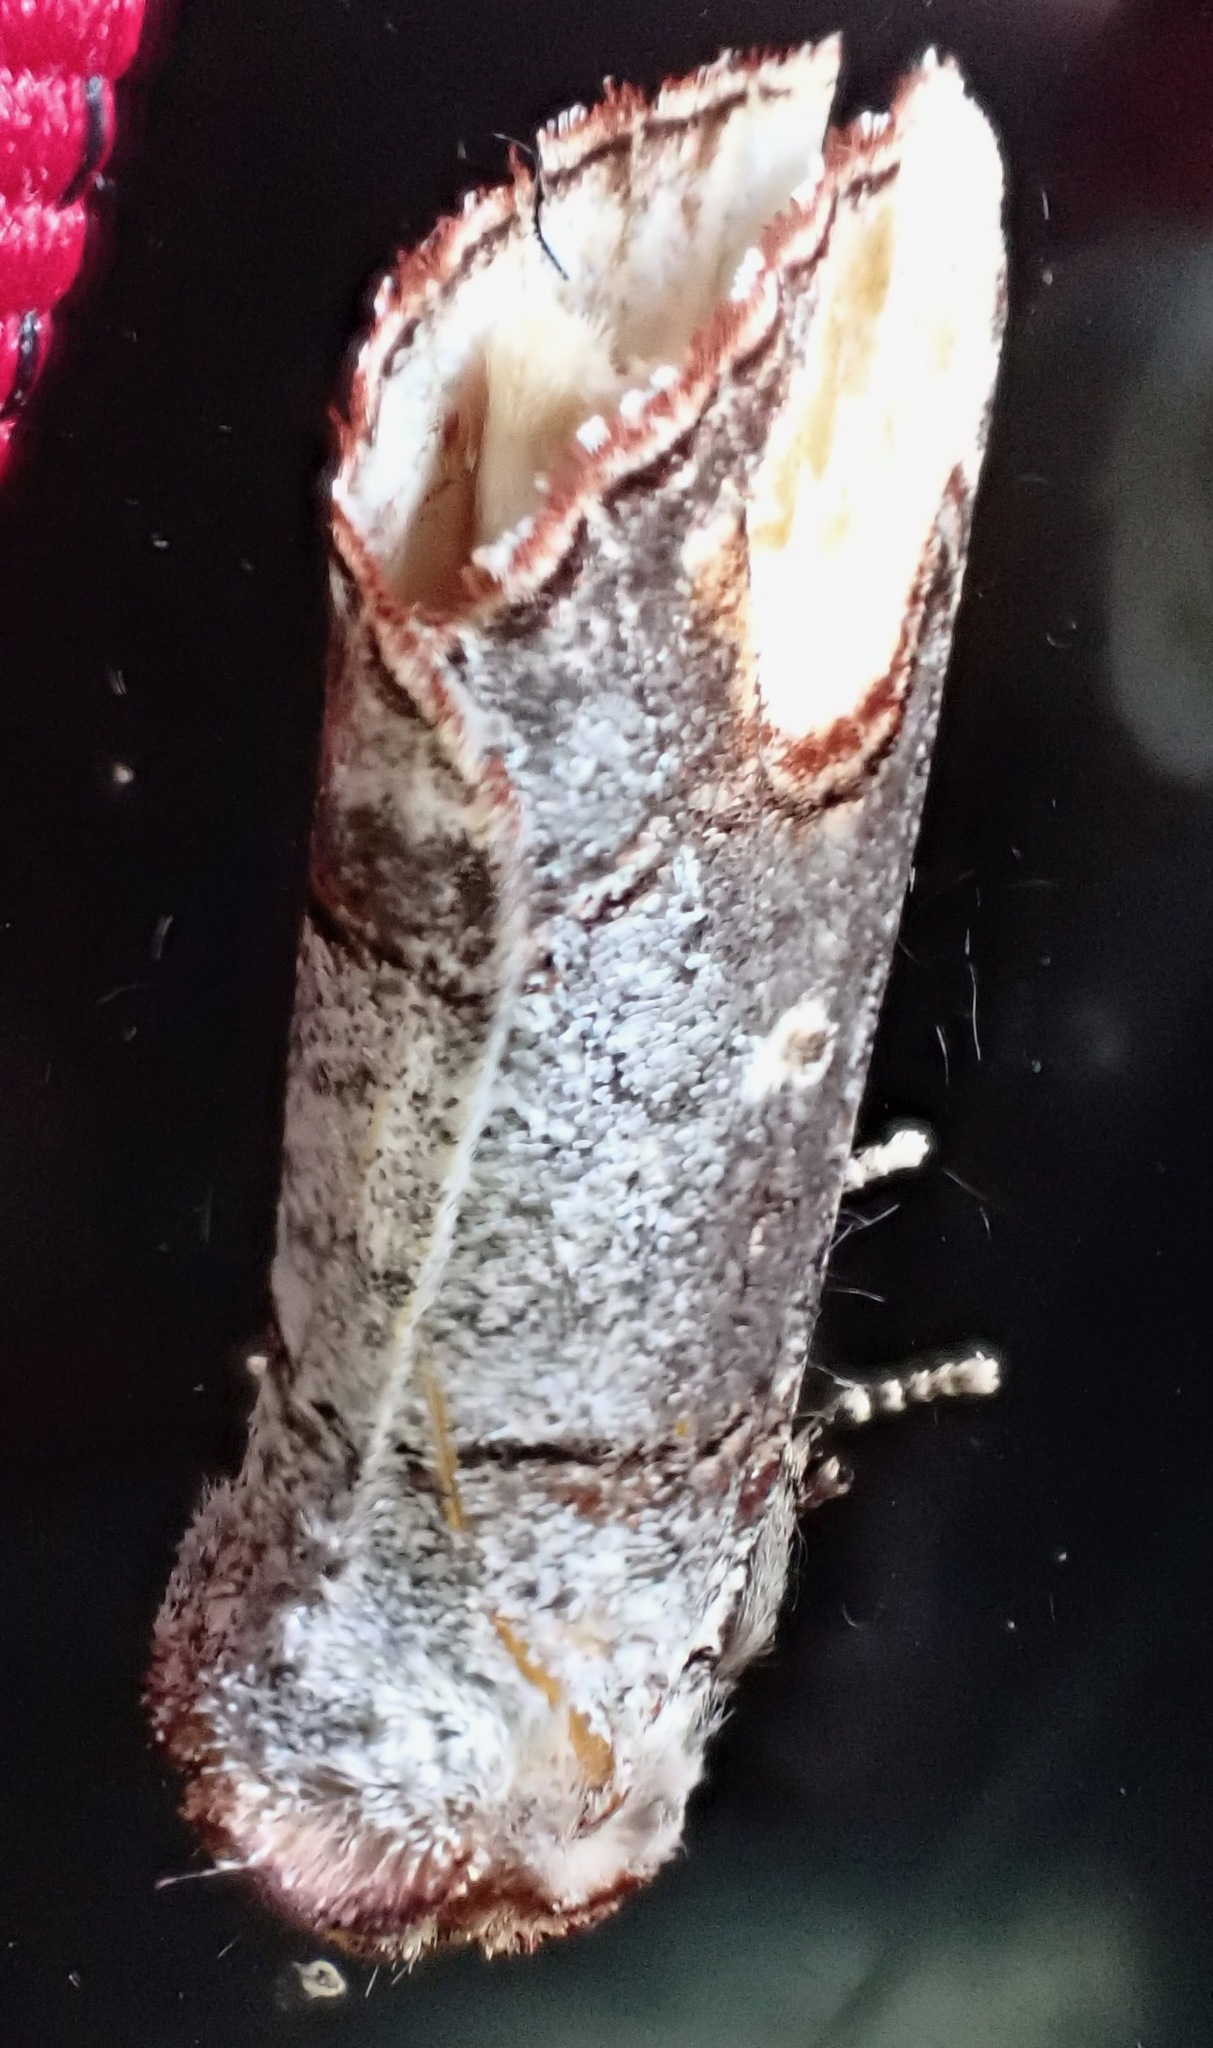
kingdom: Animalia
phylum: Arthropoda
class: Insecta
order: Lepidoptera
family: Notodontidae
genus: Phalera
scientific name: Phalera bucephala
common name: Buff-tip
